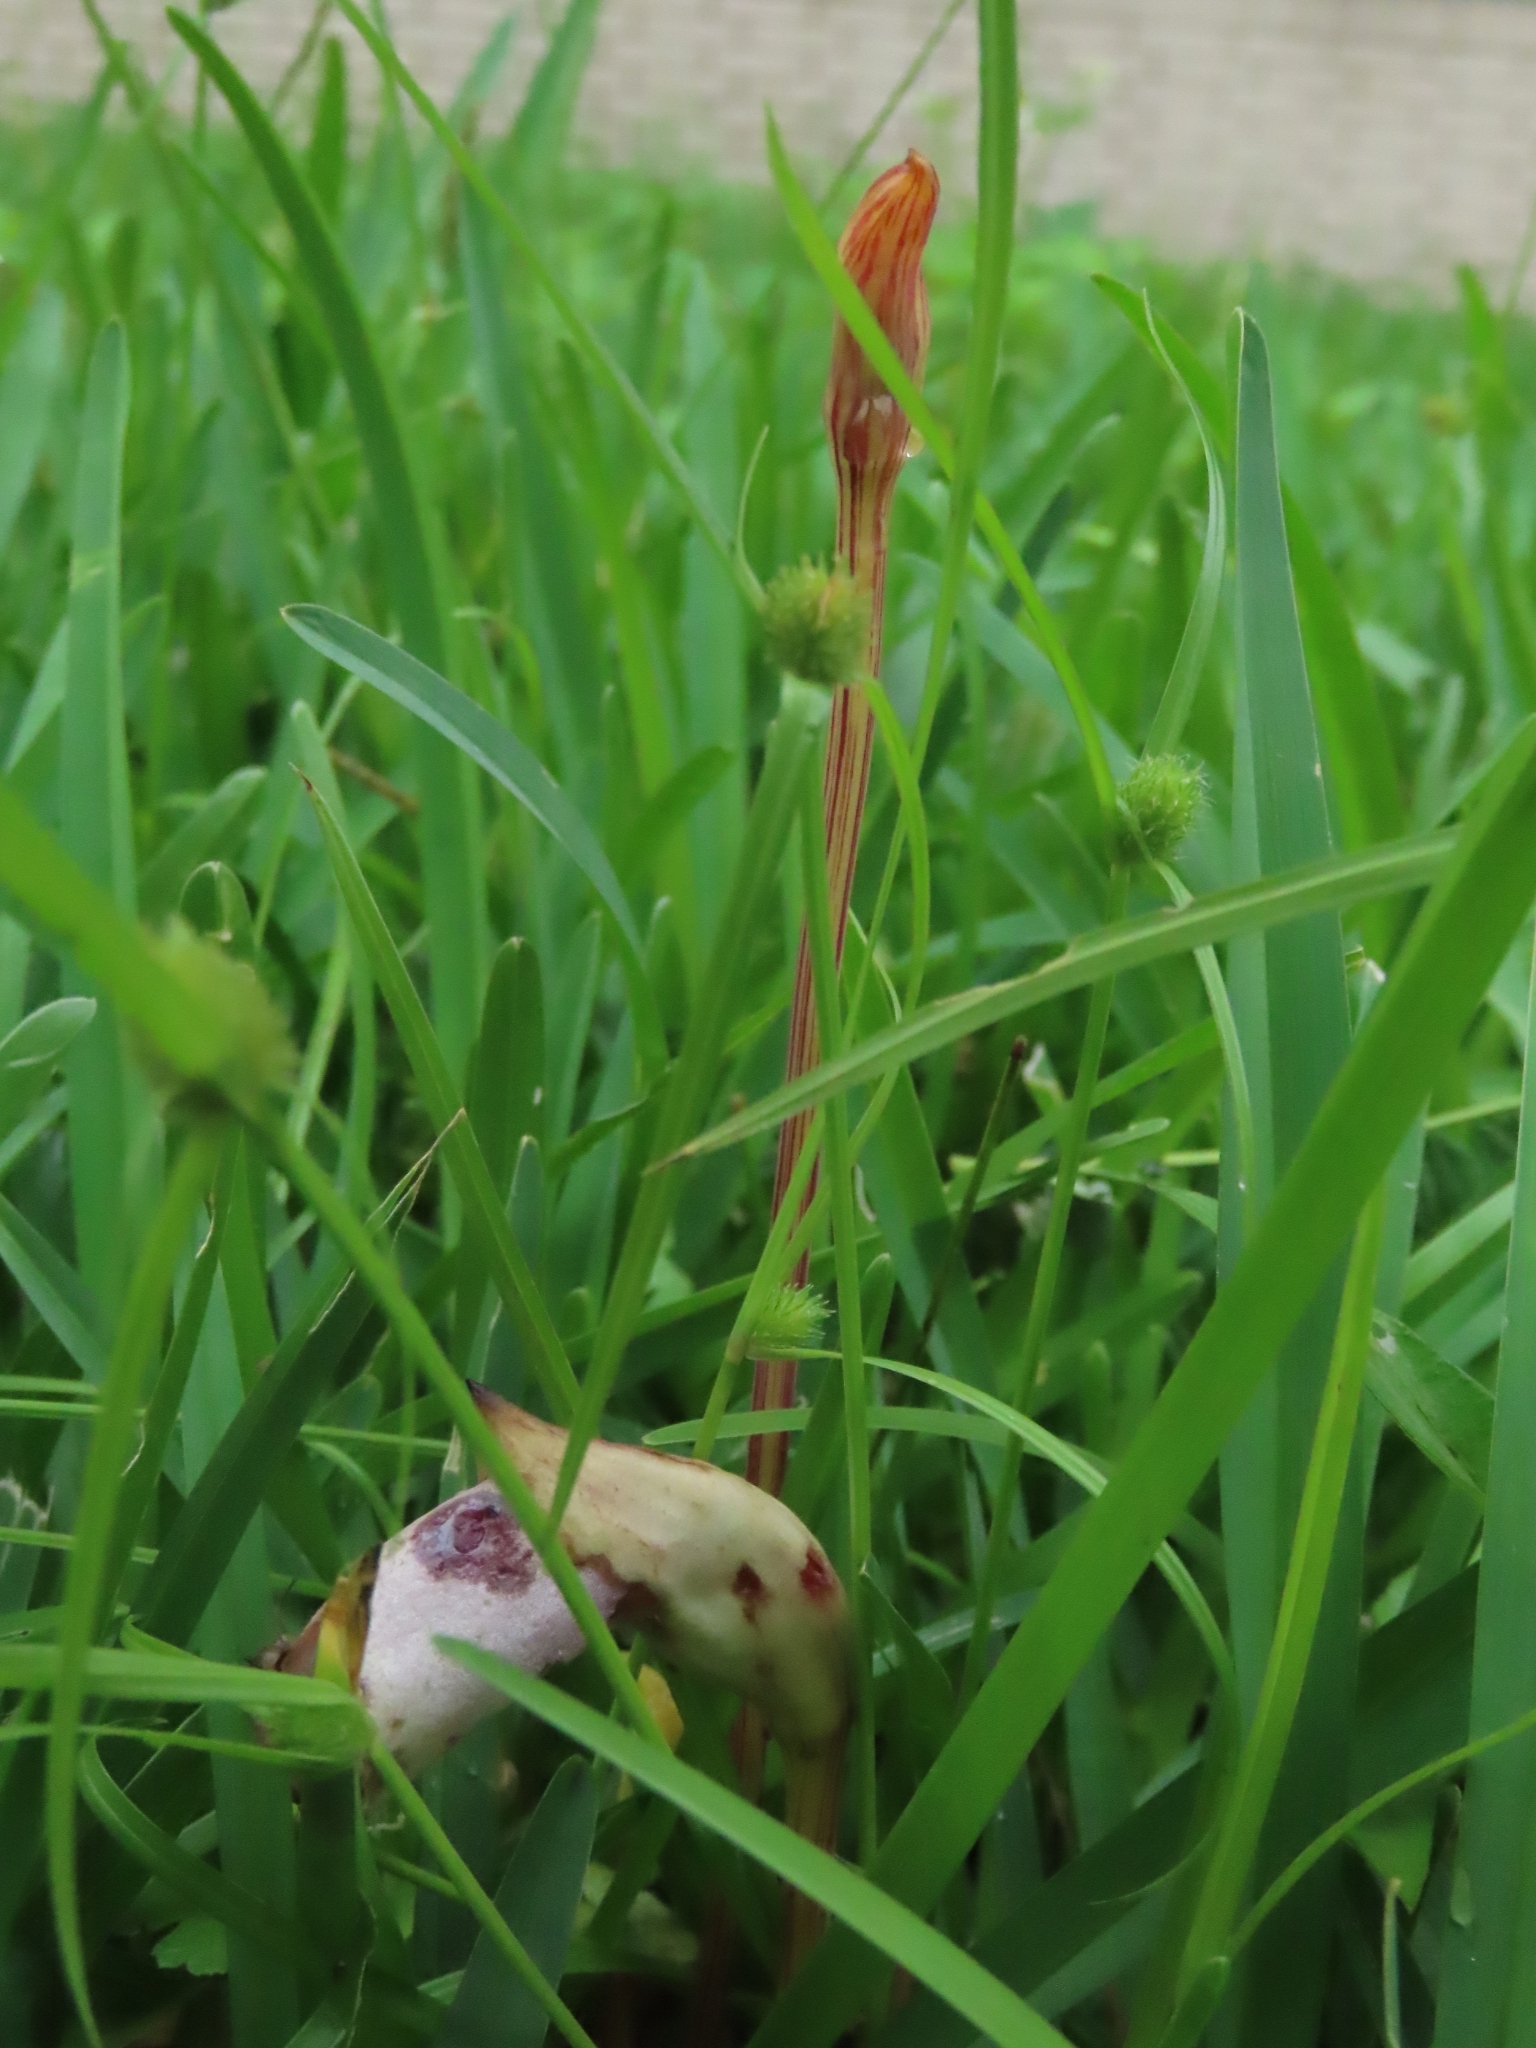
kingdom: Plantae
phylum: Tracheophyta
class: Magnoliopsida
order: Lamiales
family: Orobanchaceae
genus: Aeginetia
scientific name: Aeginetia indica
